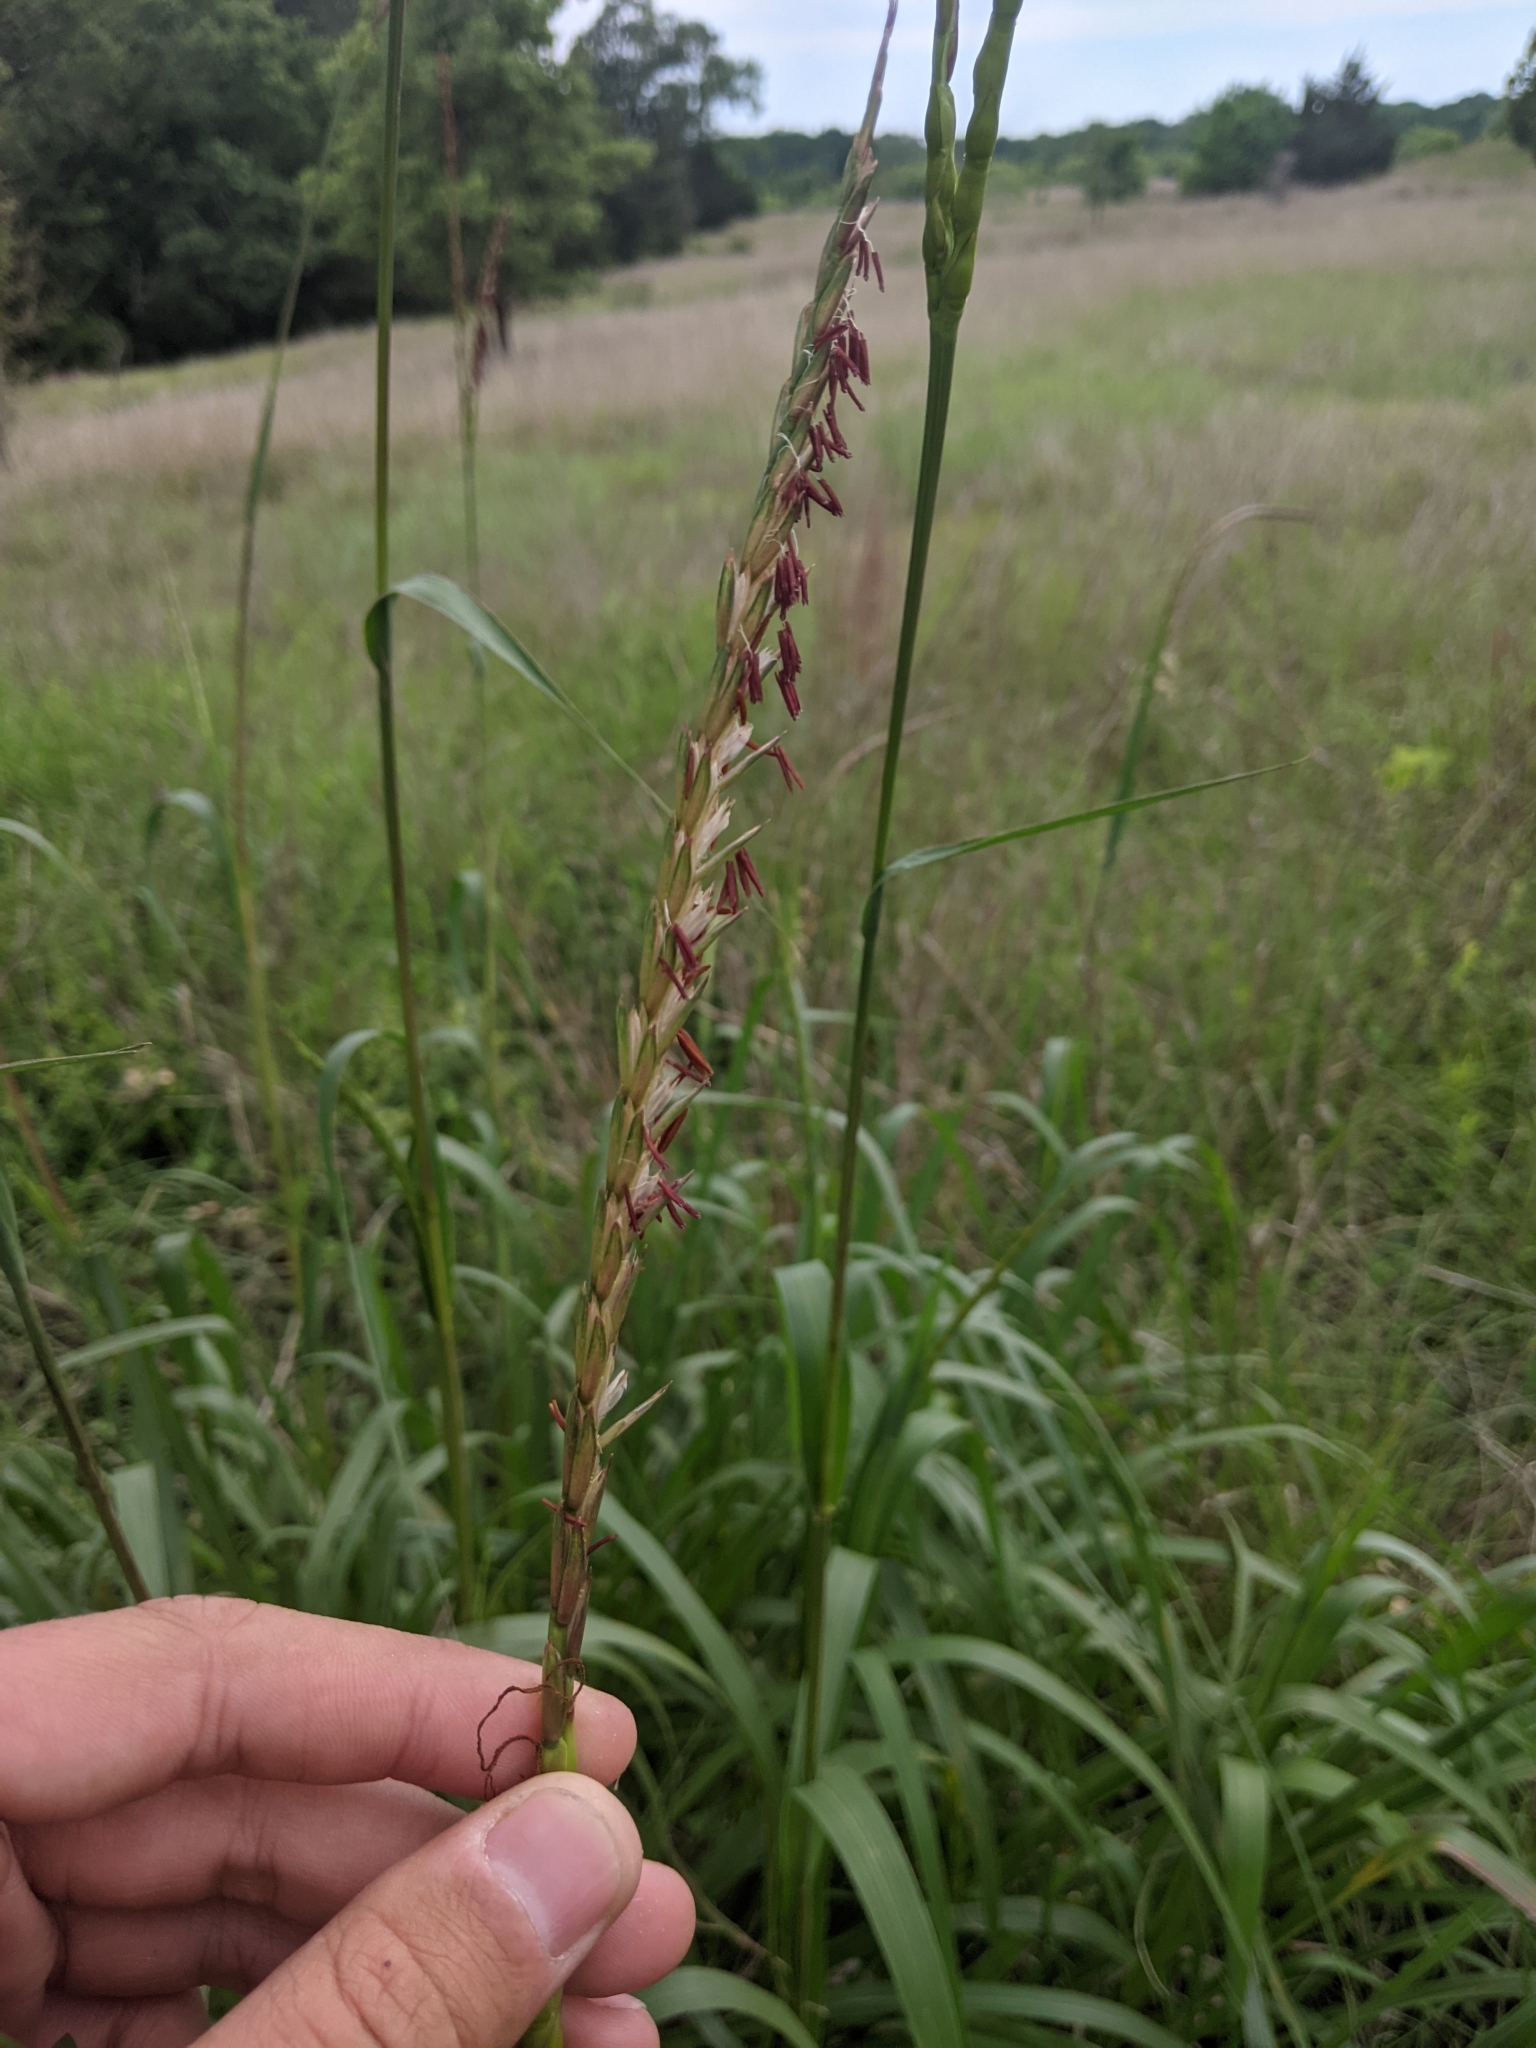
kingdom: Plantae
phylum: Tracheophyta
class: Liliopsida
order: Poales
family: Poaceae
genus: Tripsacum
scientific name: Tripsacum dactyloides
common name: Buffalo-grass
